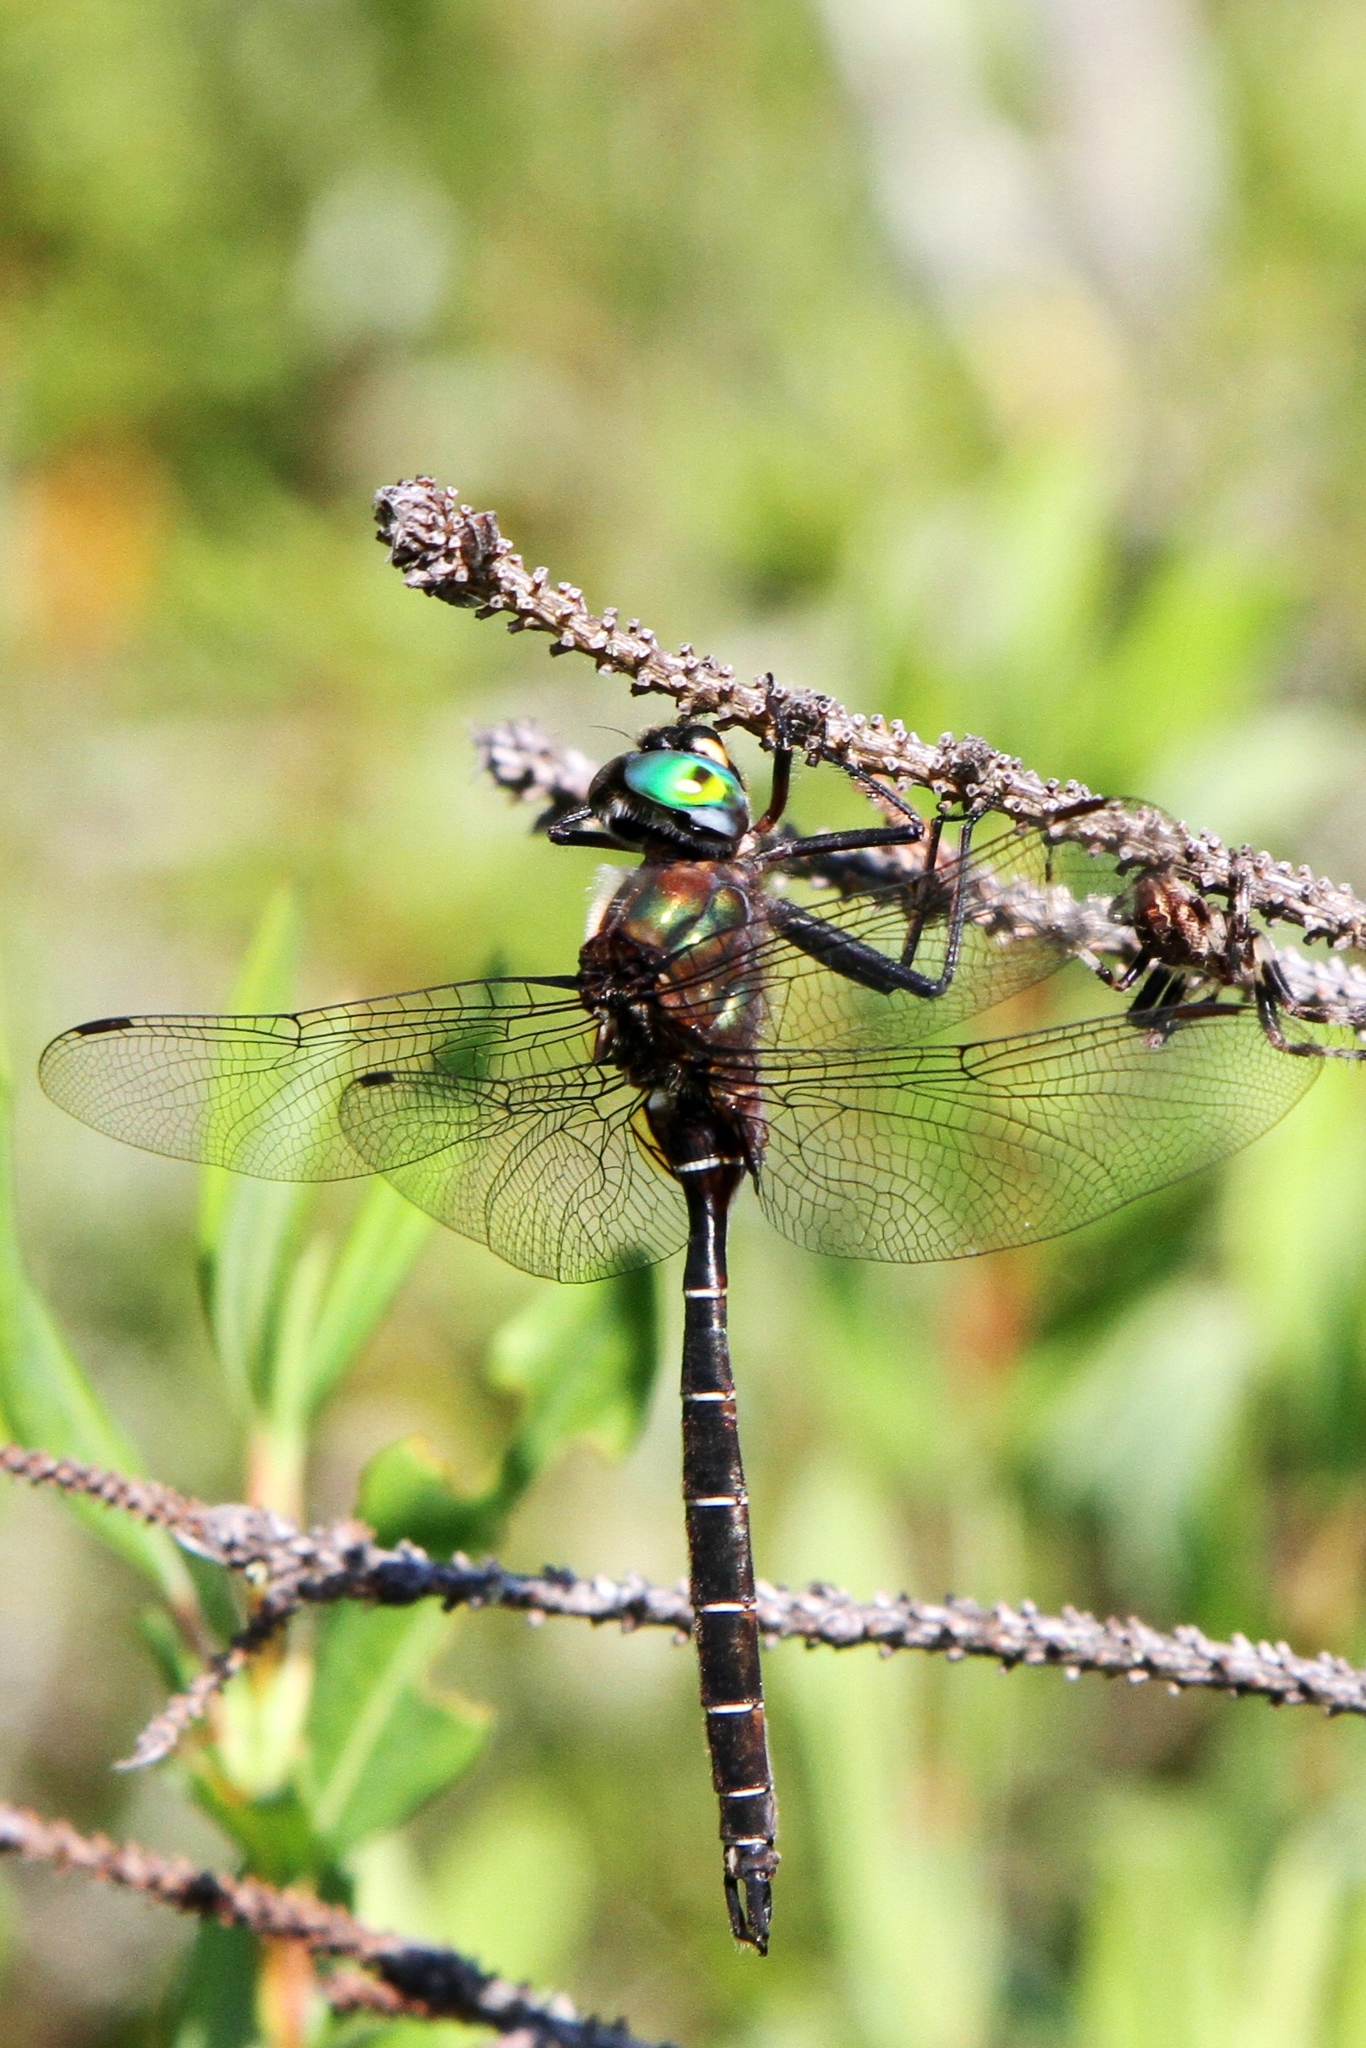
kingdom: Animalia
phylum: Arthropoda
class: Insecta
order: Odonata
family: Corduliidae
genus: Somatochlora
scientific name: Somatochlora cingulata
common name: Lake emerald
